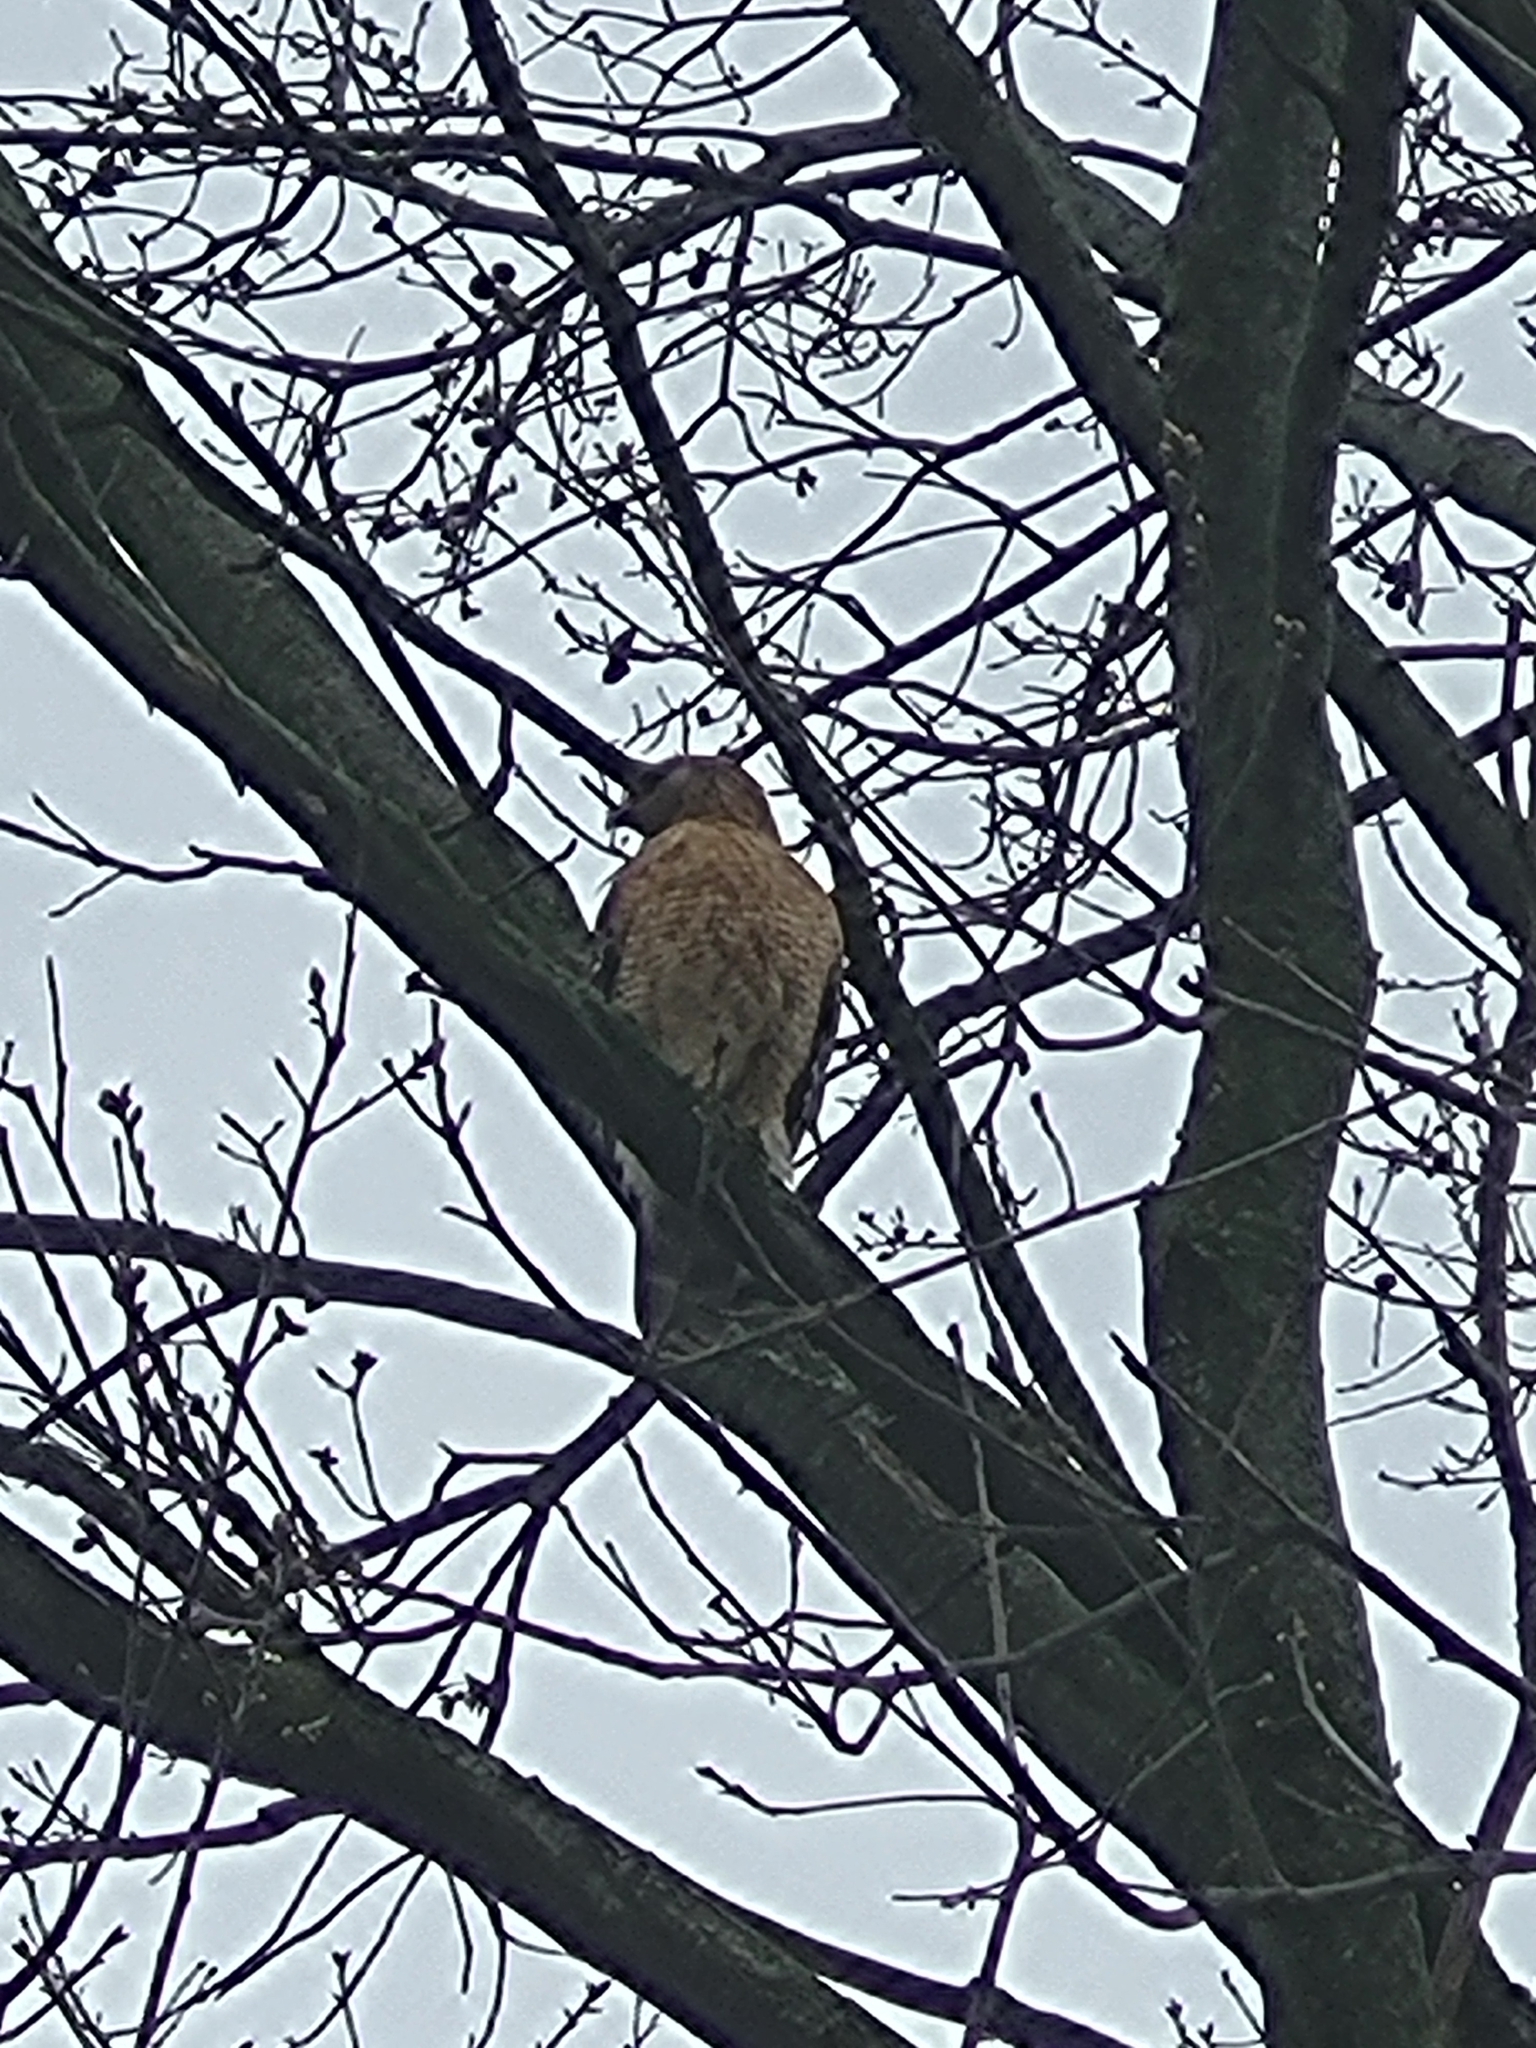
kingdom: Animalia
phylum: Chordata
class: Aves
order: Accipitriformes
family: Accipitridae
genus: Buteo
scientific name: Buteo lineatus
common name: Red-shouldered hawk
